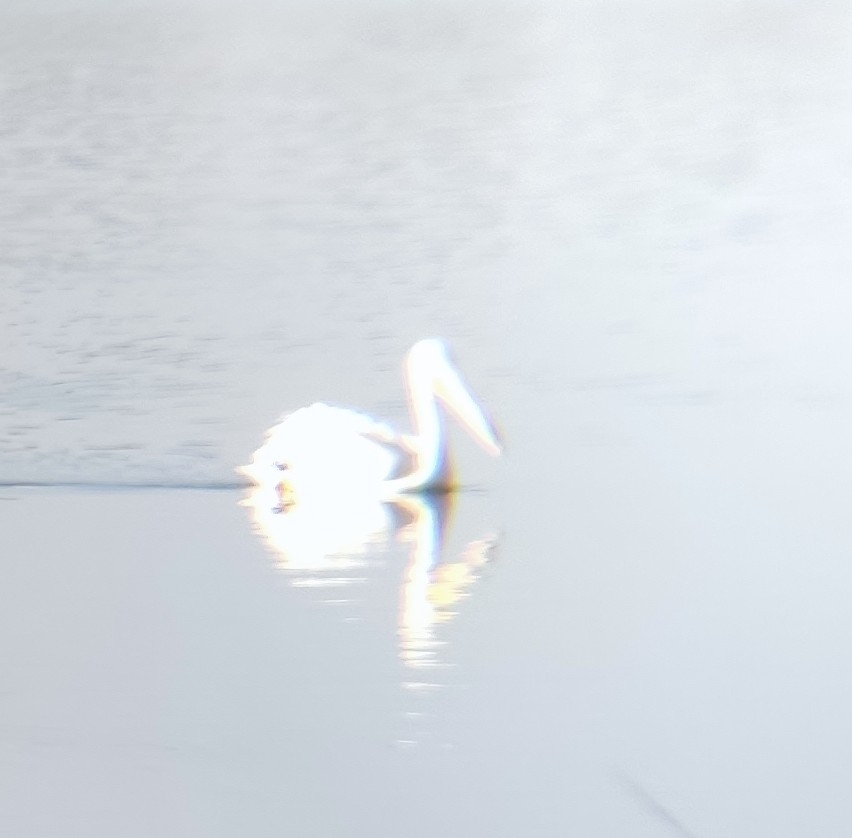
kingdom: Animalia
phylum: Chordata
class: Aves
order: Pelecaniformes
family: Pelecanidae
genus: Pelecanus
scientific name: Pelecanus erythrorhynchos
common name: American white pelican
